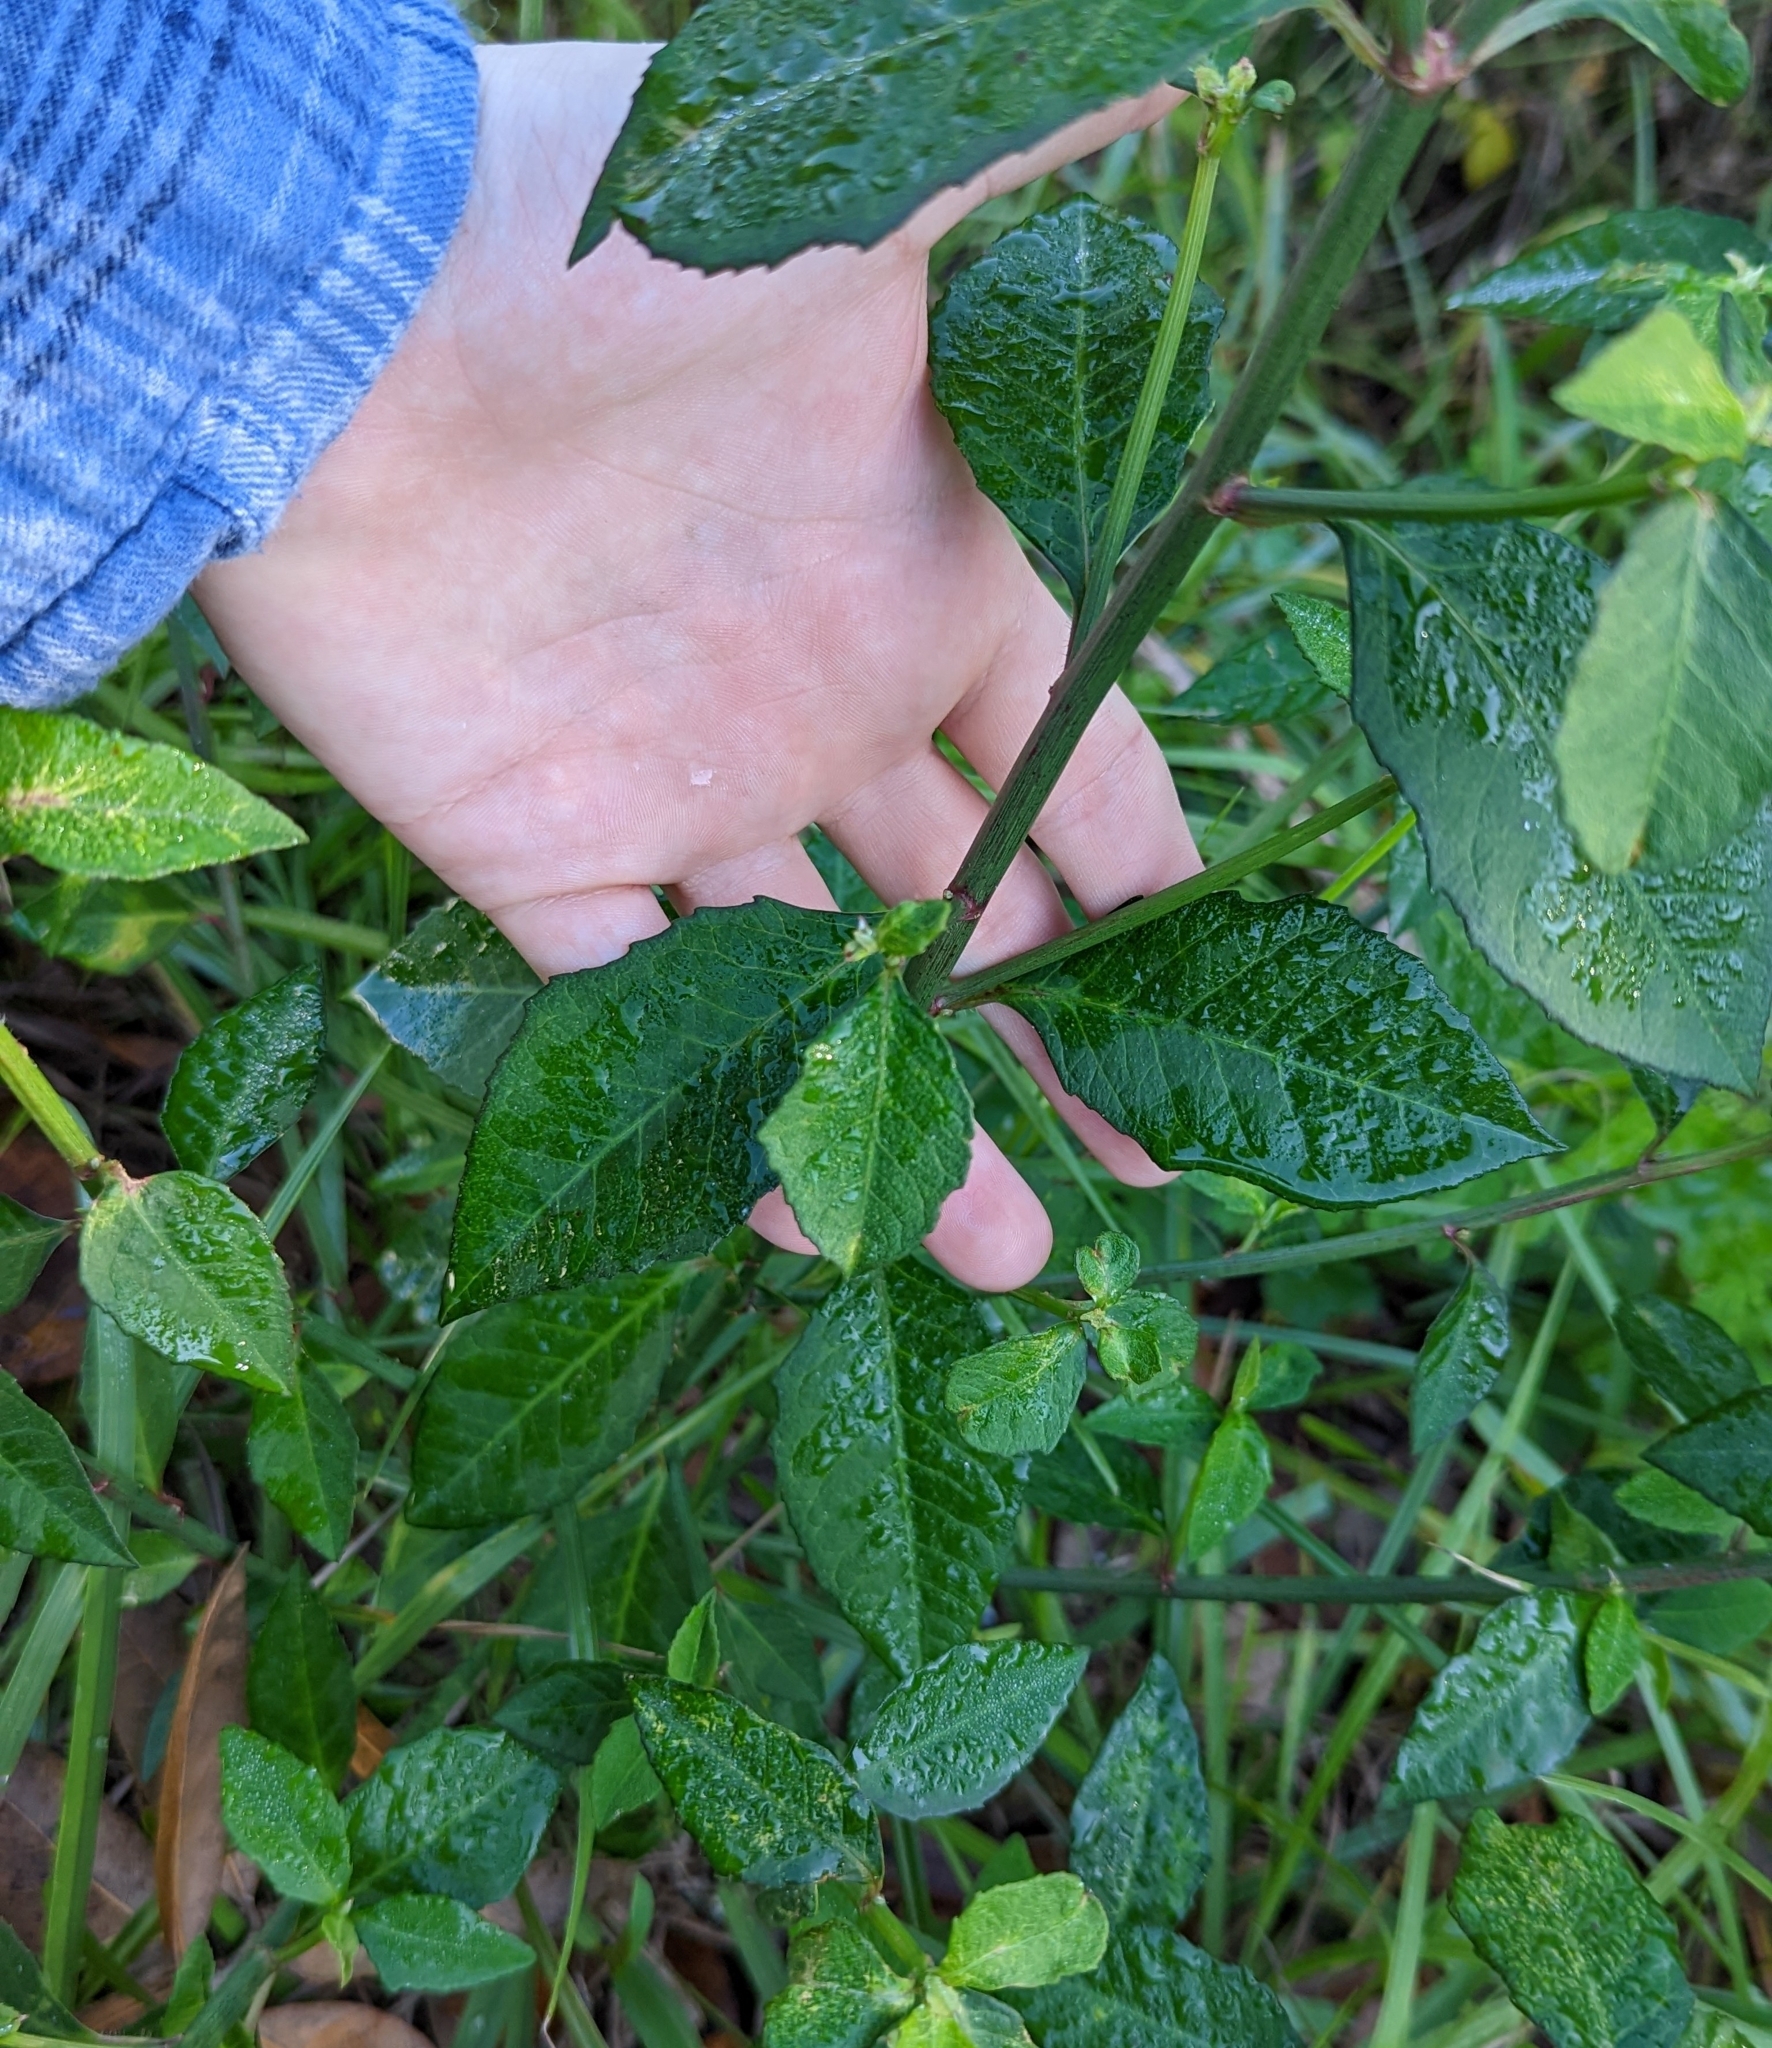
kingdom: Plantae
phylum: Tracheophyta
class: Magnoliopsida
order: Malpighiales
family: Euphorbiaceae
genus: Euphorbia
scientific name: Euphorbia heterophylla
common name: Mexican fireplant
